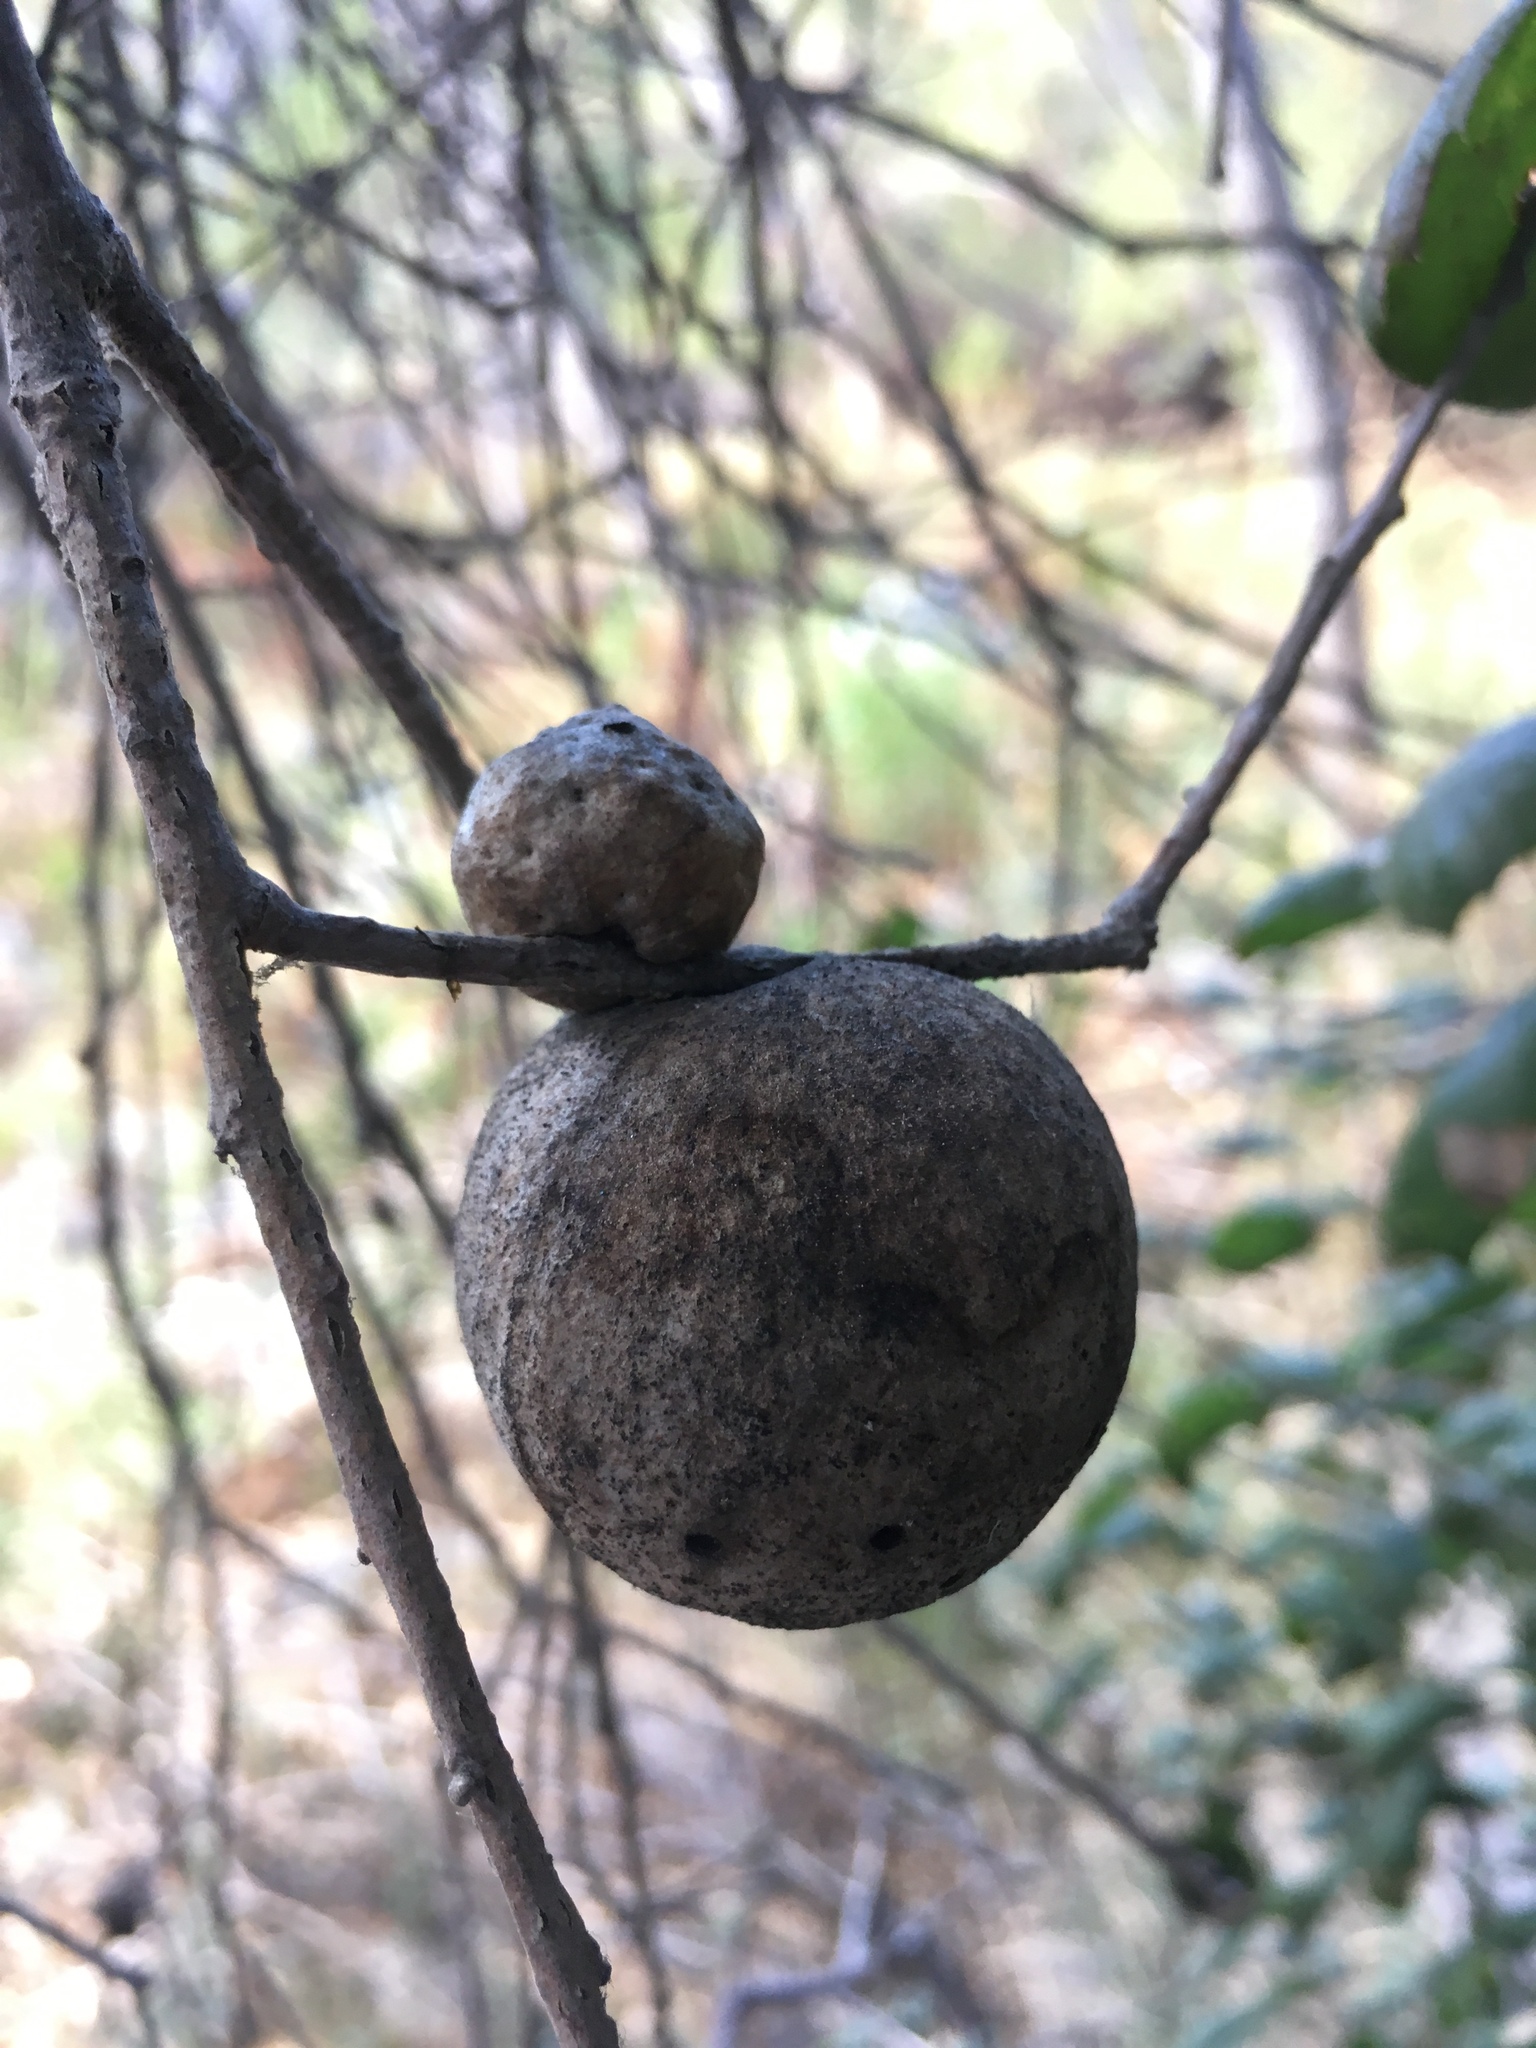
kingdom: Animalia
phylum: Arthropoda
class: Insecta
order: Hymenoptera
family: Cynipidae
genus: Andricus
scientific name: Andricus quercuscalifornicus
